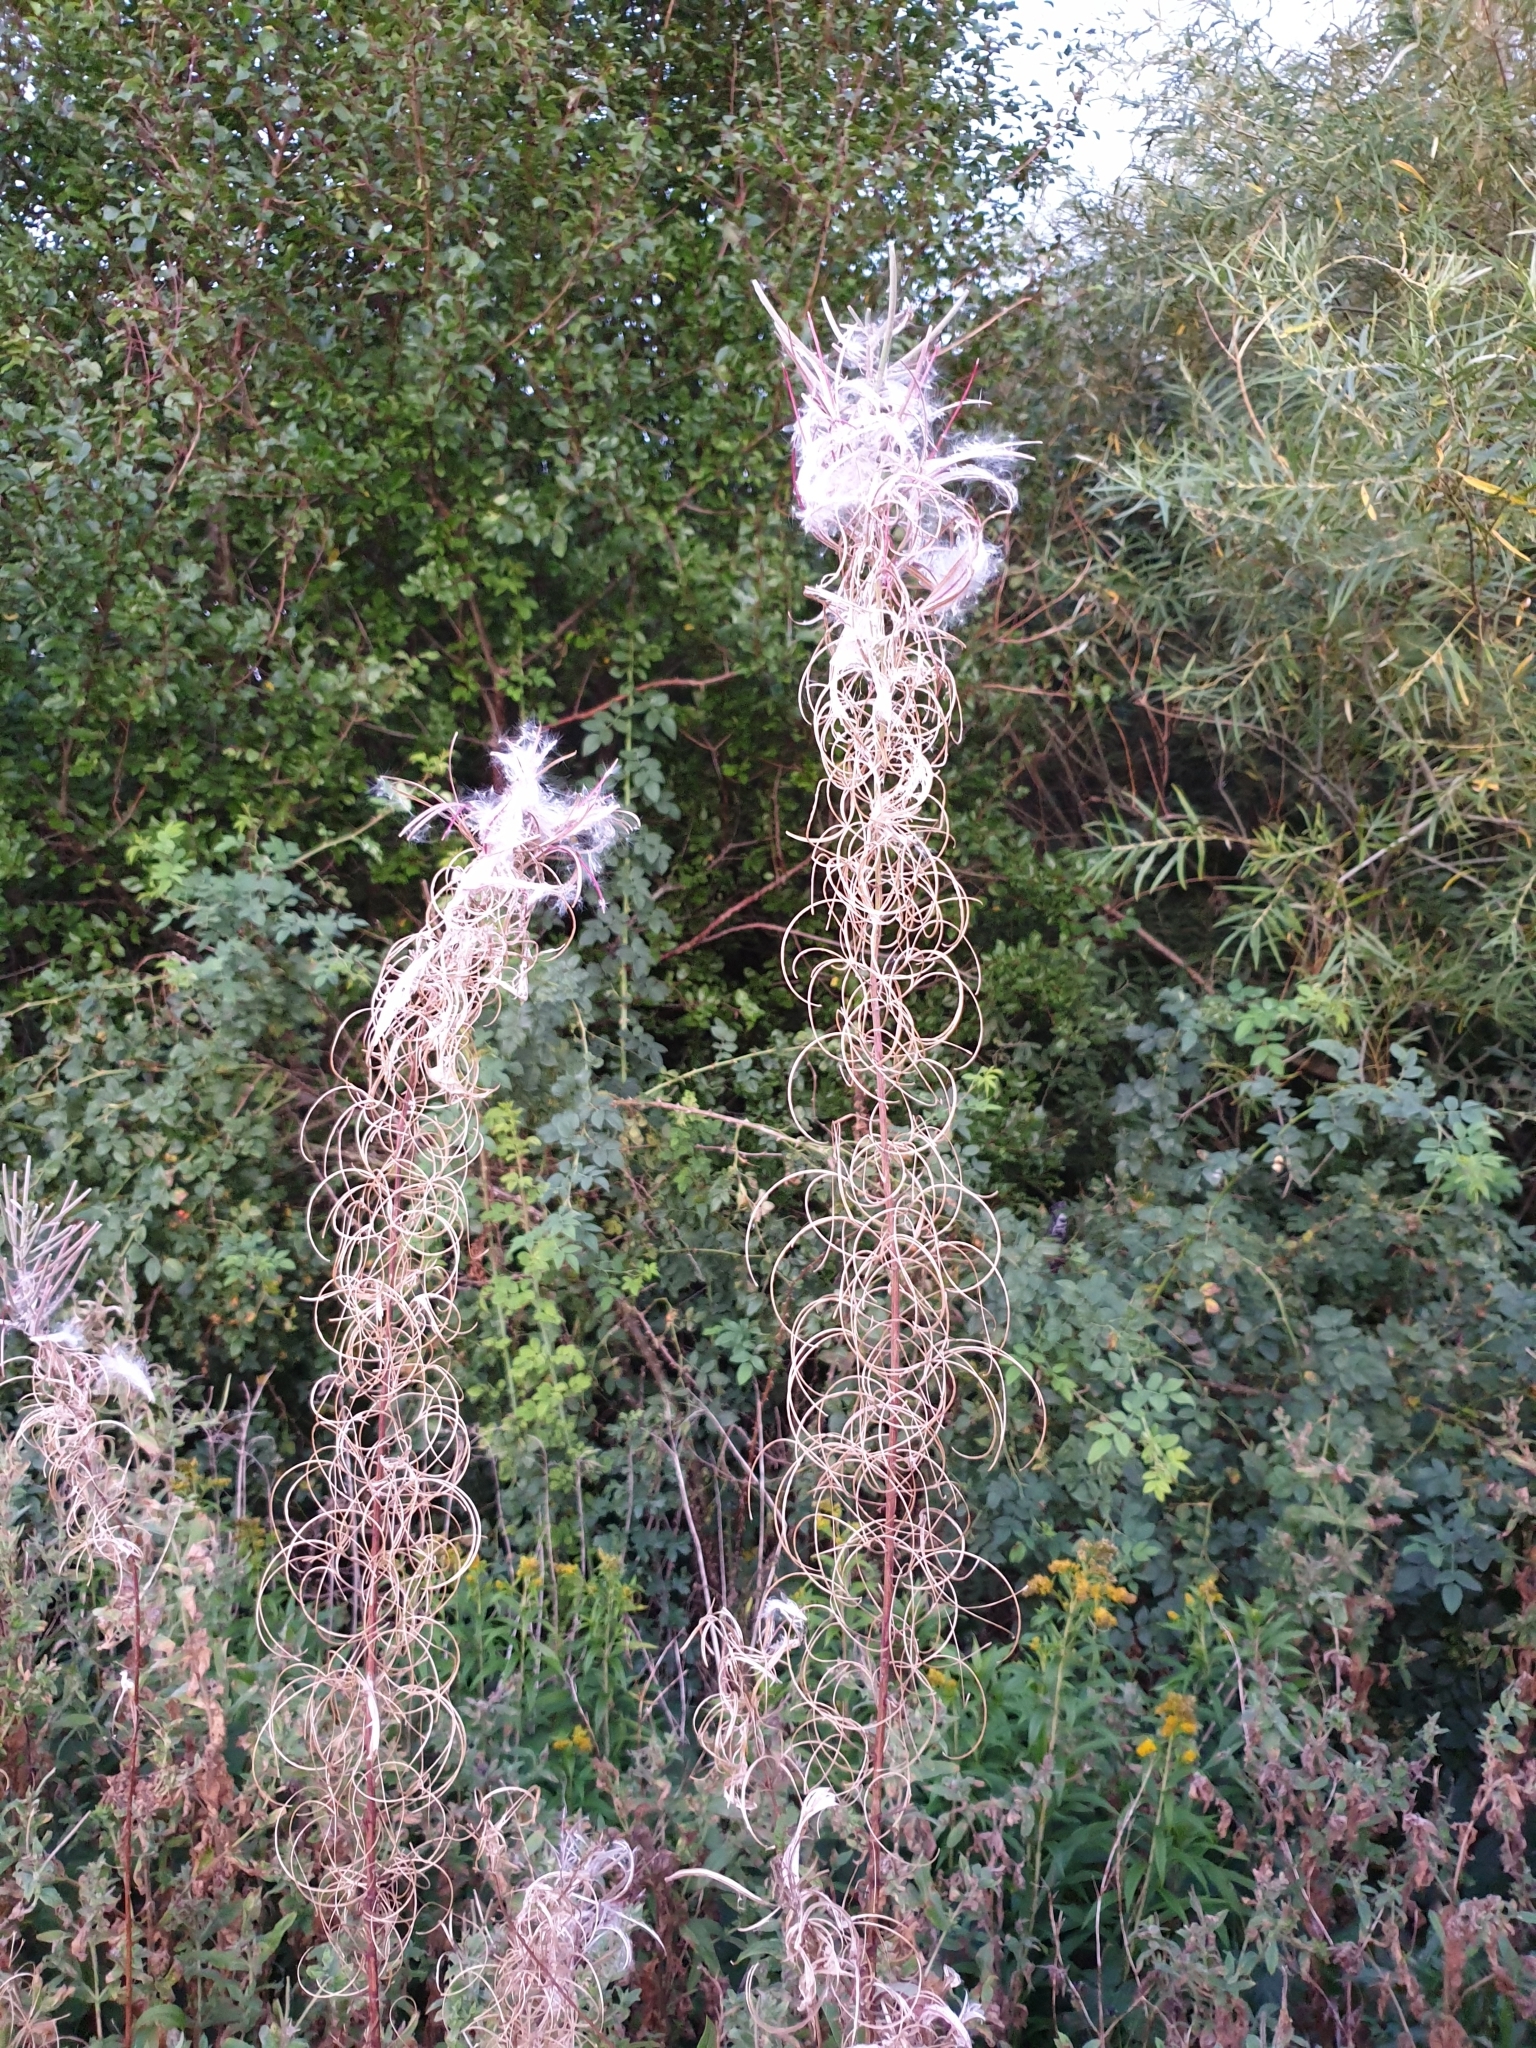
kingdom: Plantae
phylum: Tracheophyta
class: Magnoliopsida
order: Myrtales
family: Onagraceae
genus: Chamaenerion
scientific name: Chamaenerion angustifolium
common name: Fireweed
